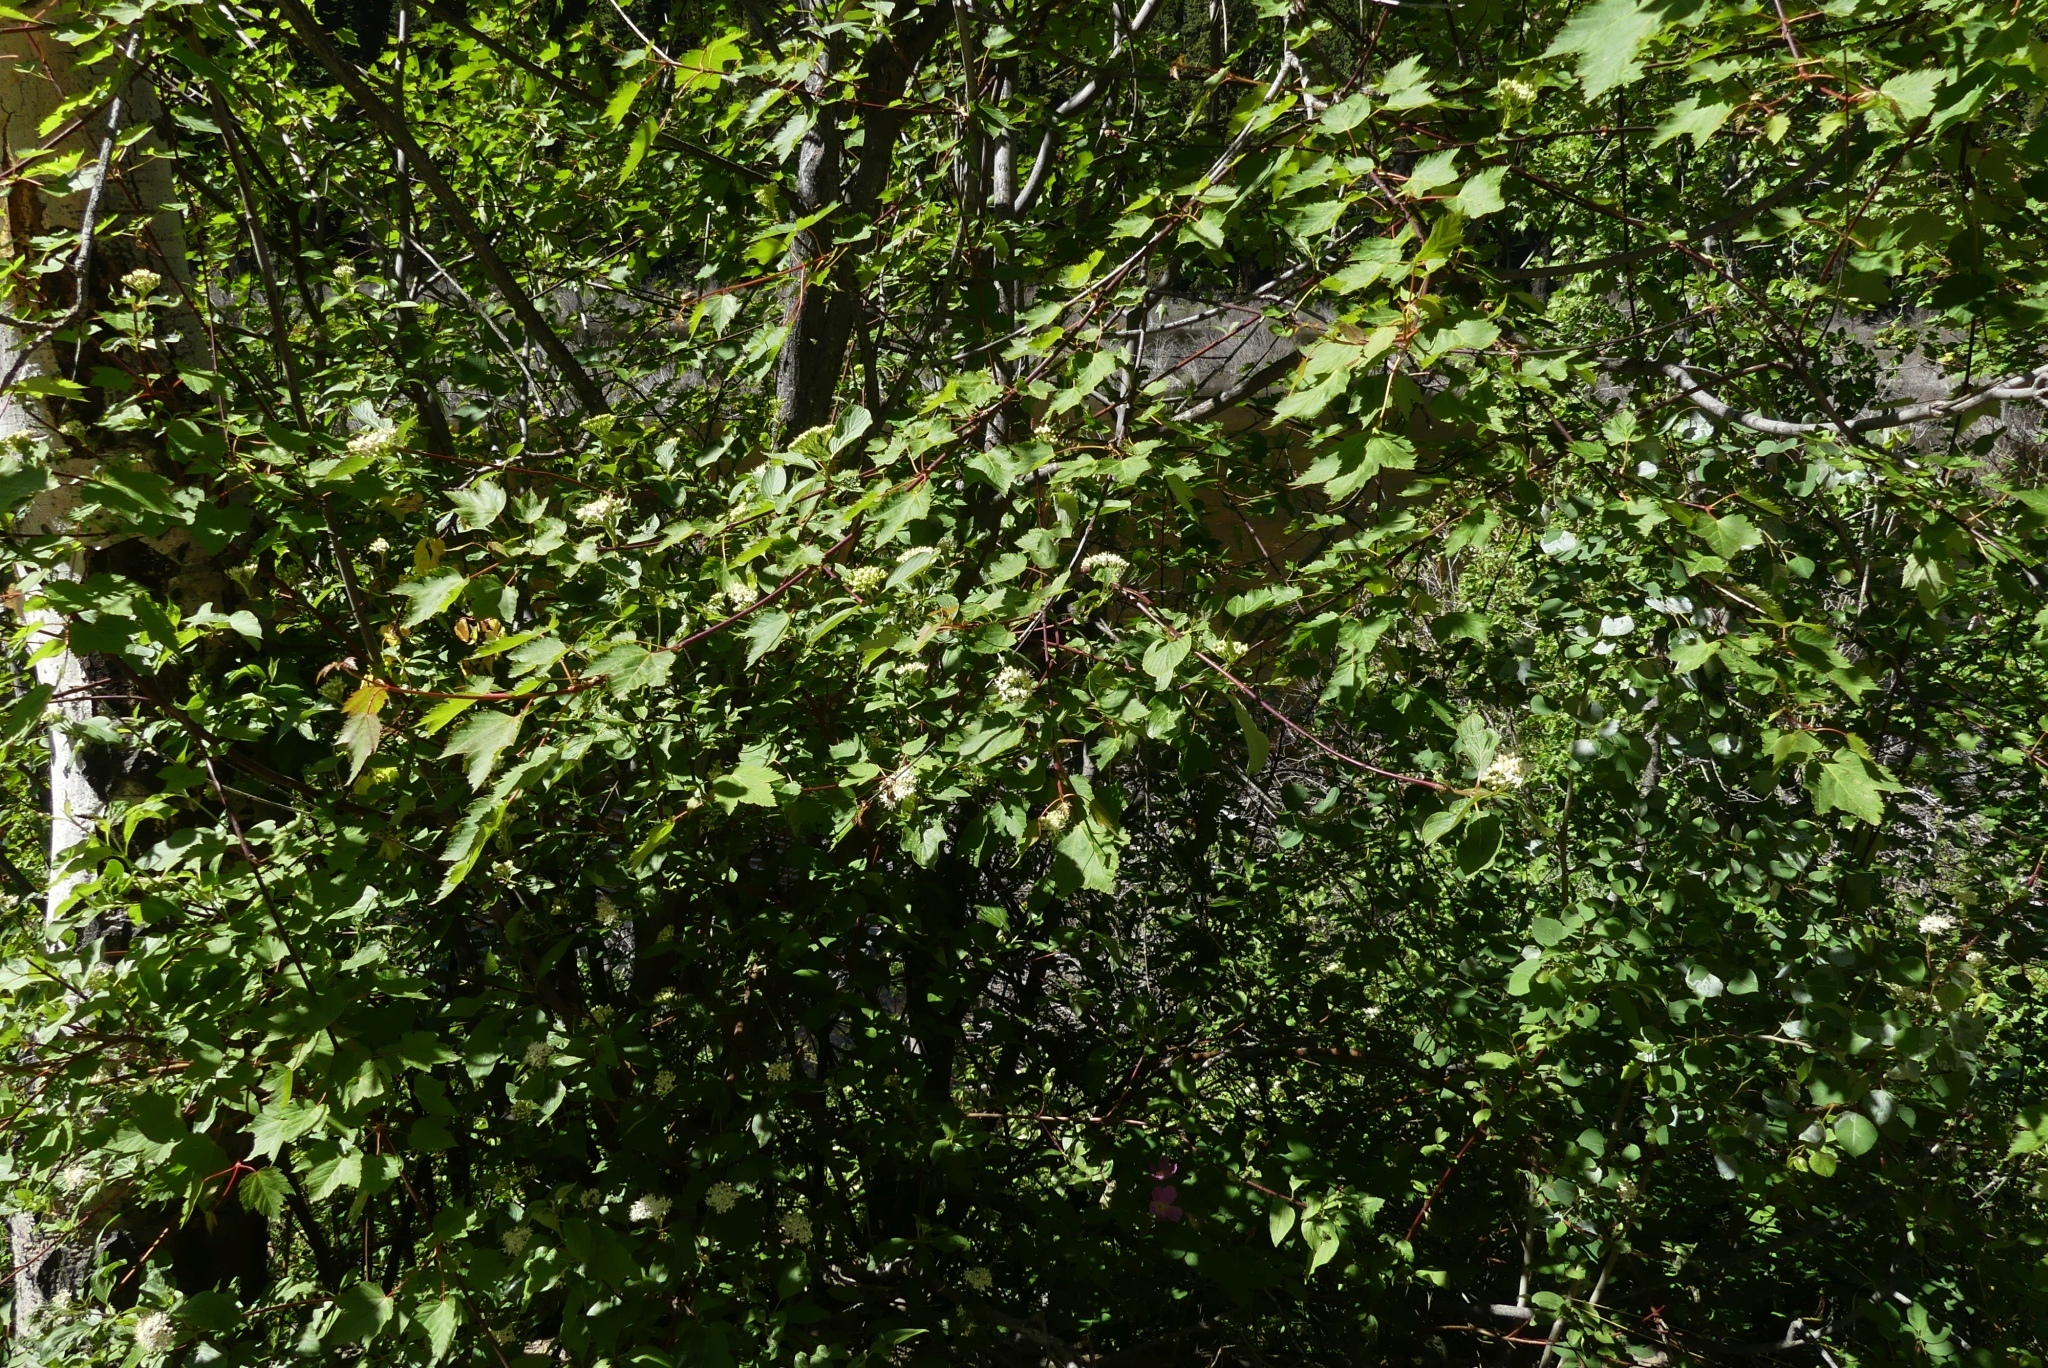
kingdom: Plantae
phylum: Tracheophyta
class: Magnoliopsida
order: Cornales
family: Cornaceae
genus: Cornus
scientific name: Cornus sericea
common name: Red-osier dogwood
